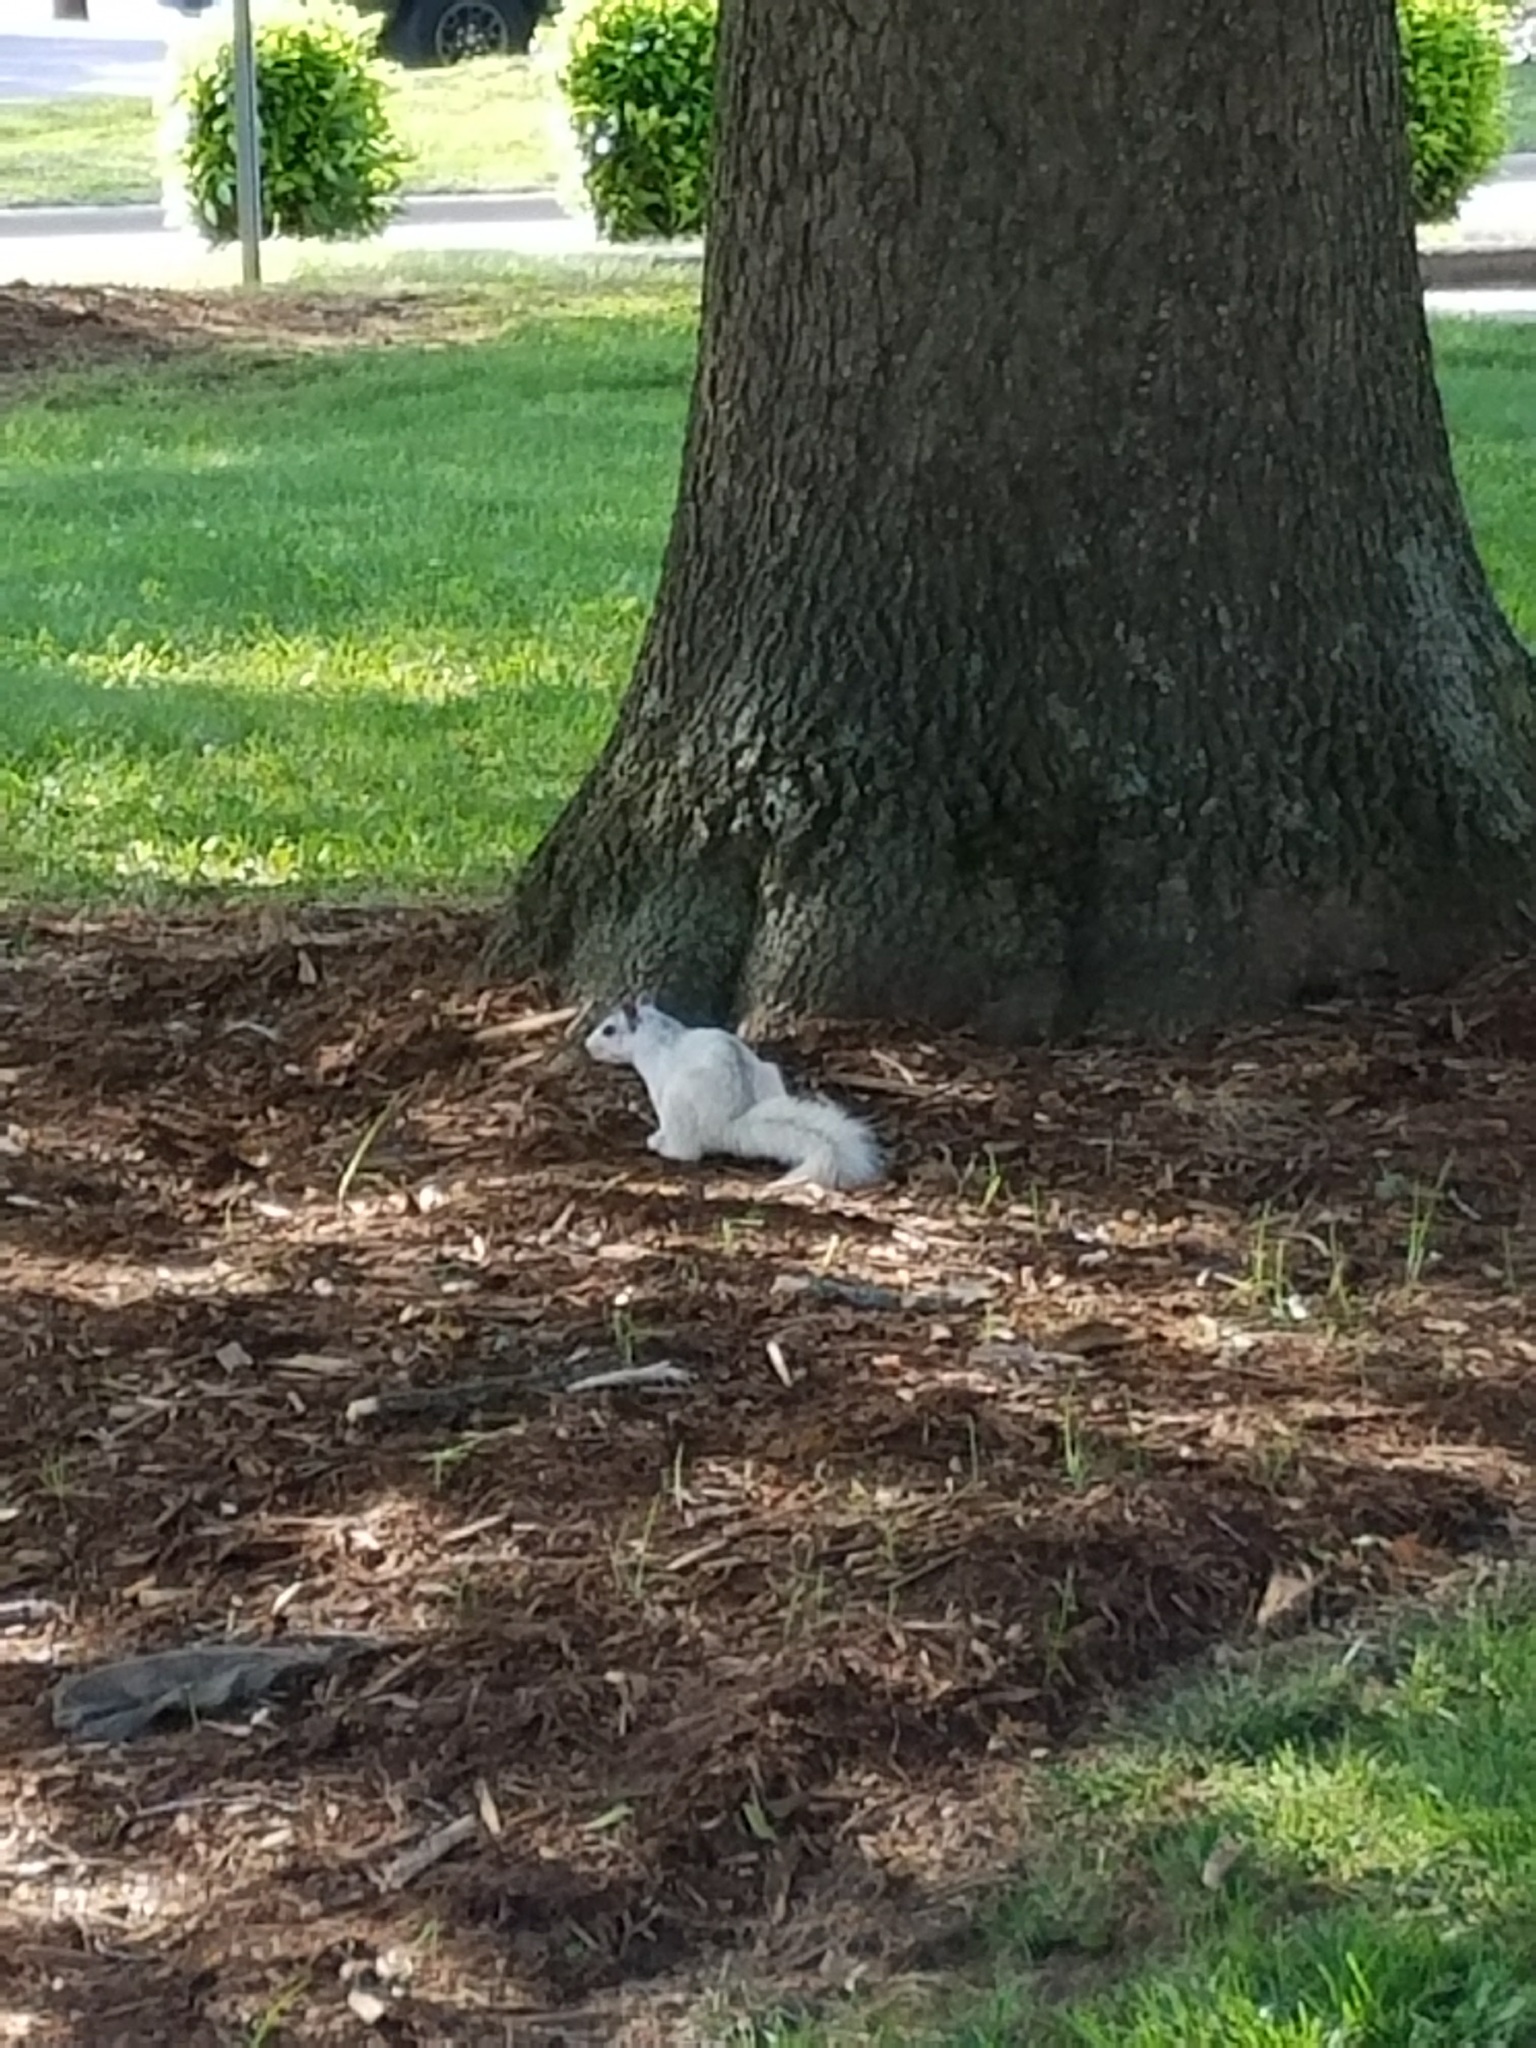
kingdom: Animalia
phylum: Chordata
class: Mammalia
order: Rodentia
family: Sciuridae
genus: Sciurus
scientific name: Sciurus carolinensis
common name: Eastern gray squirrel
